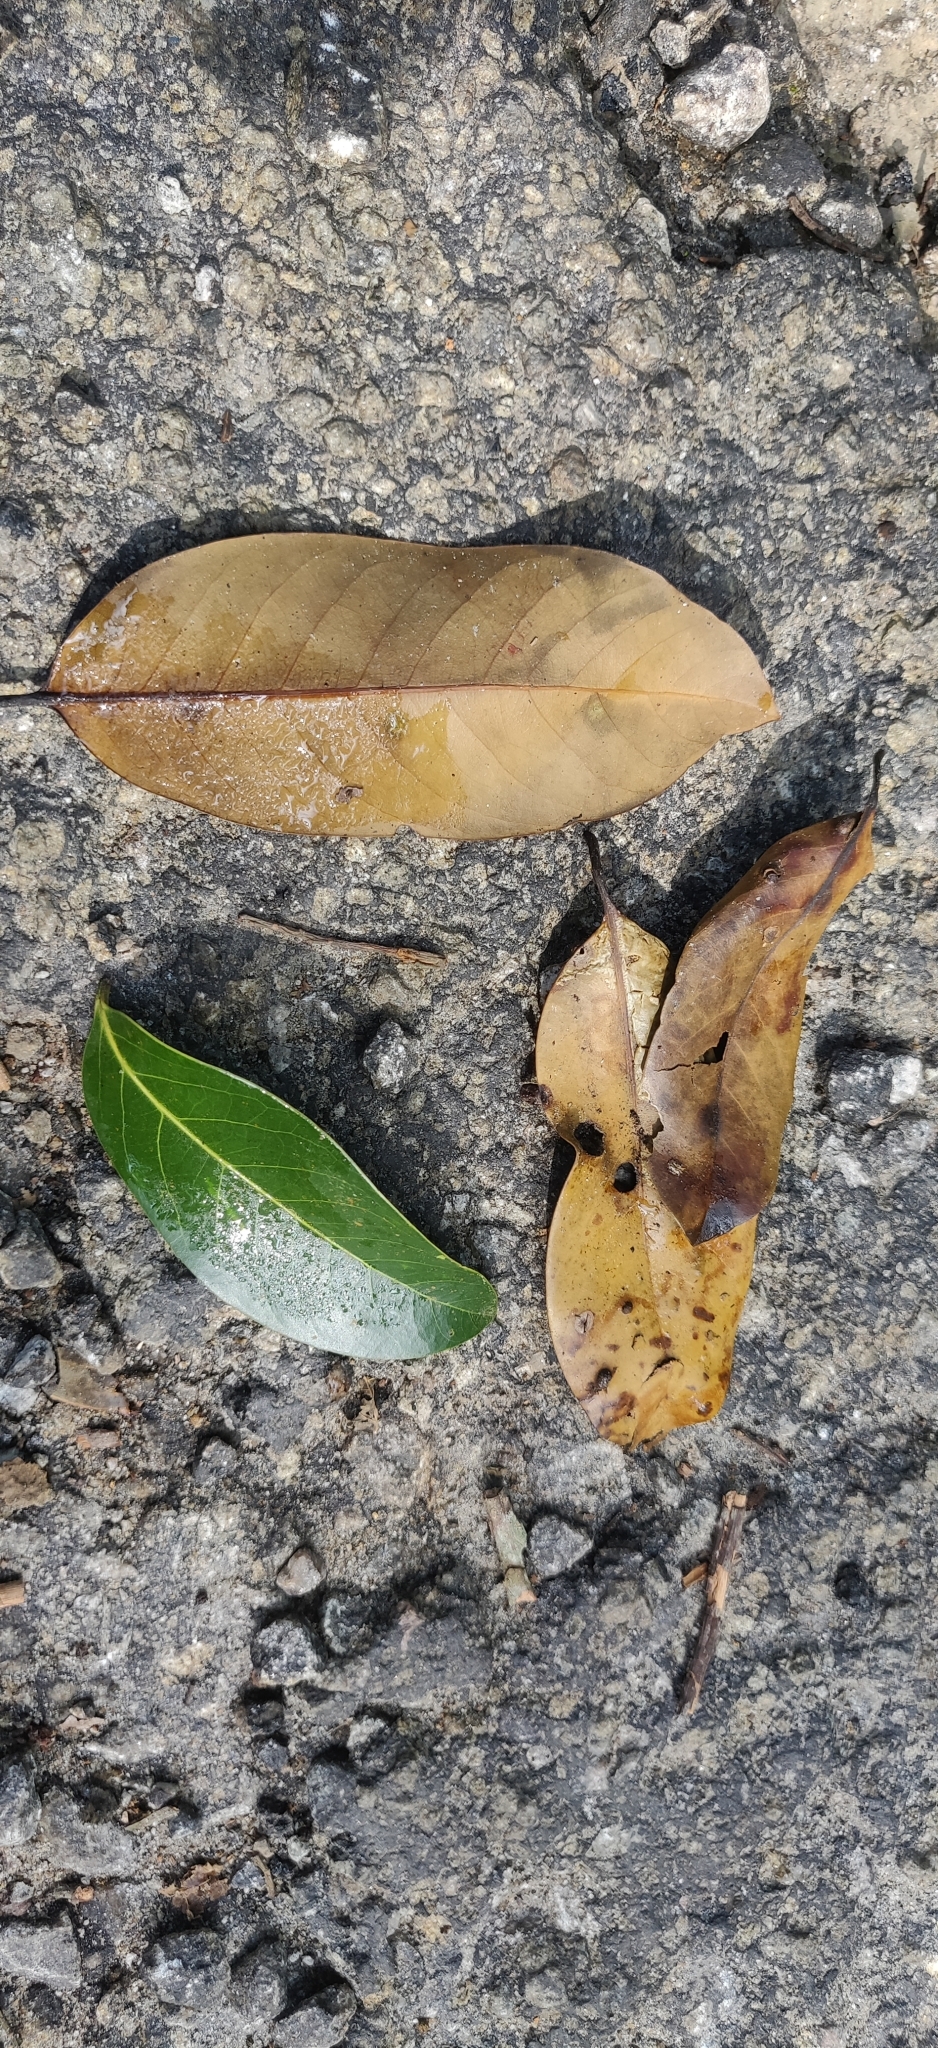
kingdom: Plantae
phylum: Tracheophyta
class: Magnoliopsida
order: Laurales
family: Lauraceae
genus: Litsea
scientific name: Litsea nigrescens
